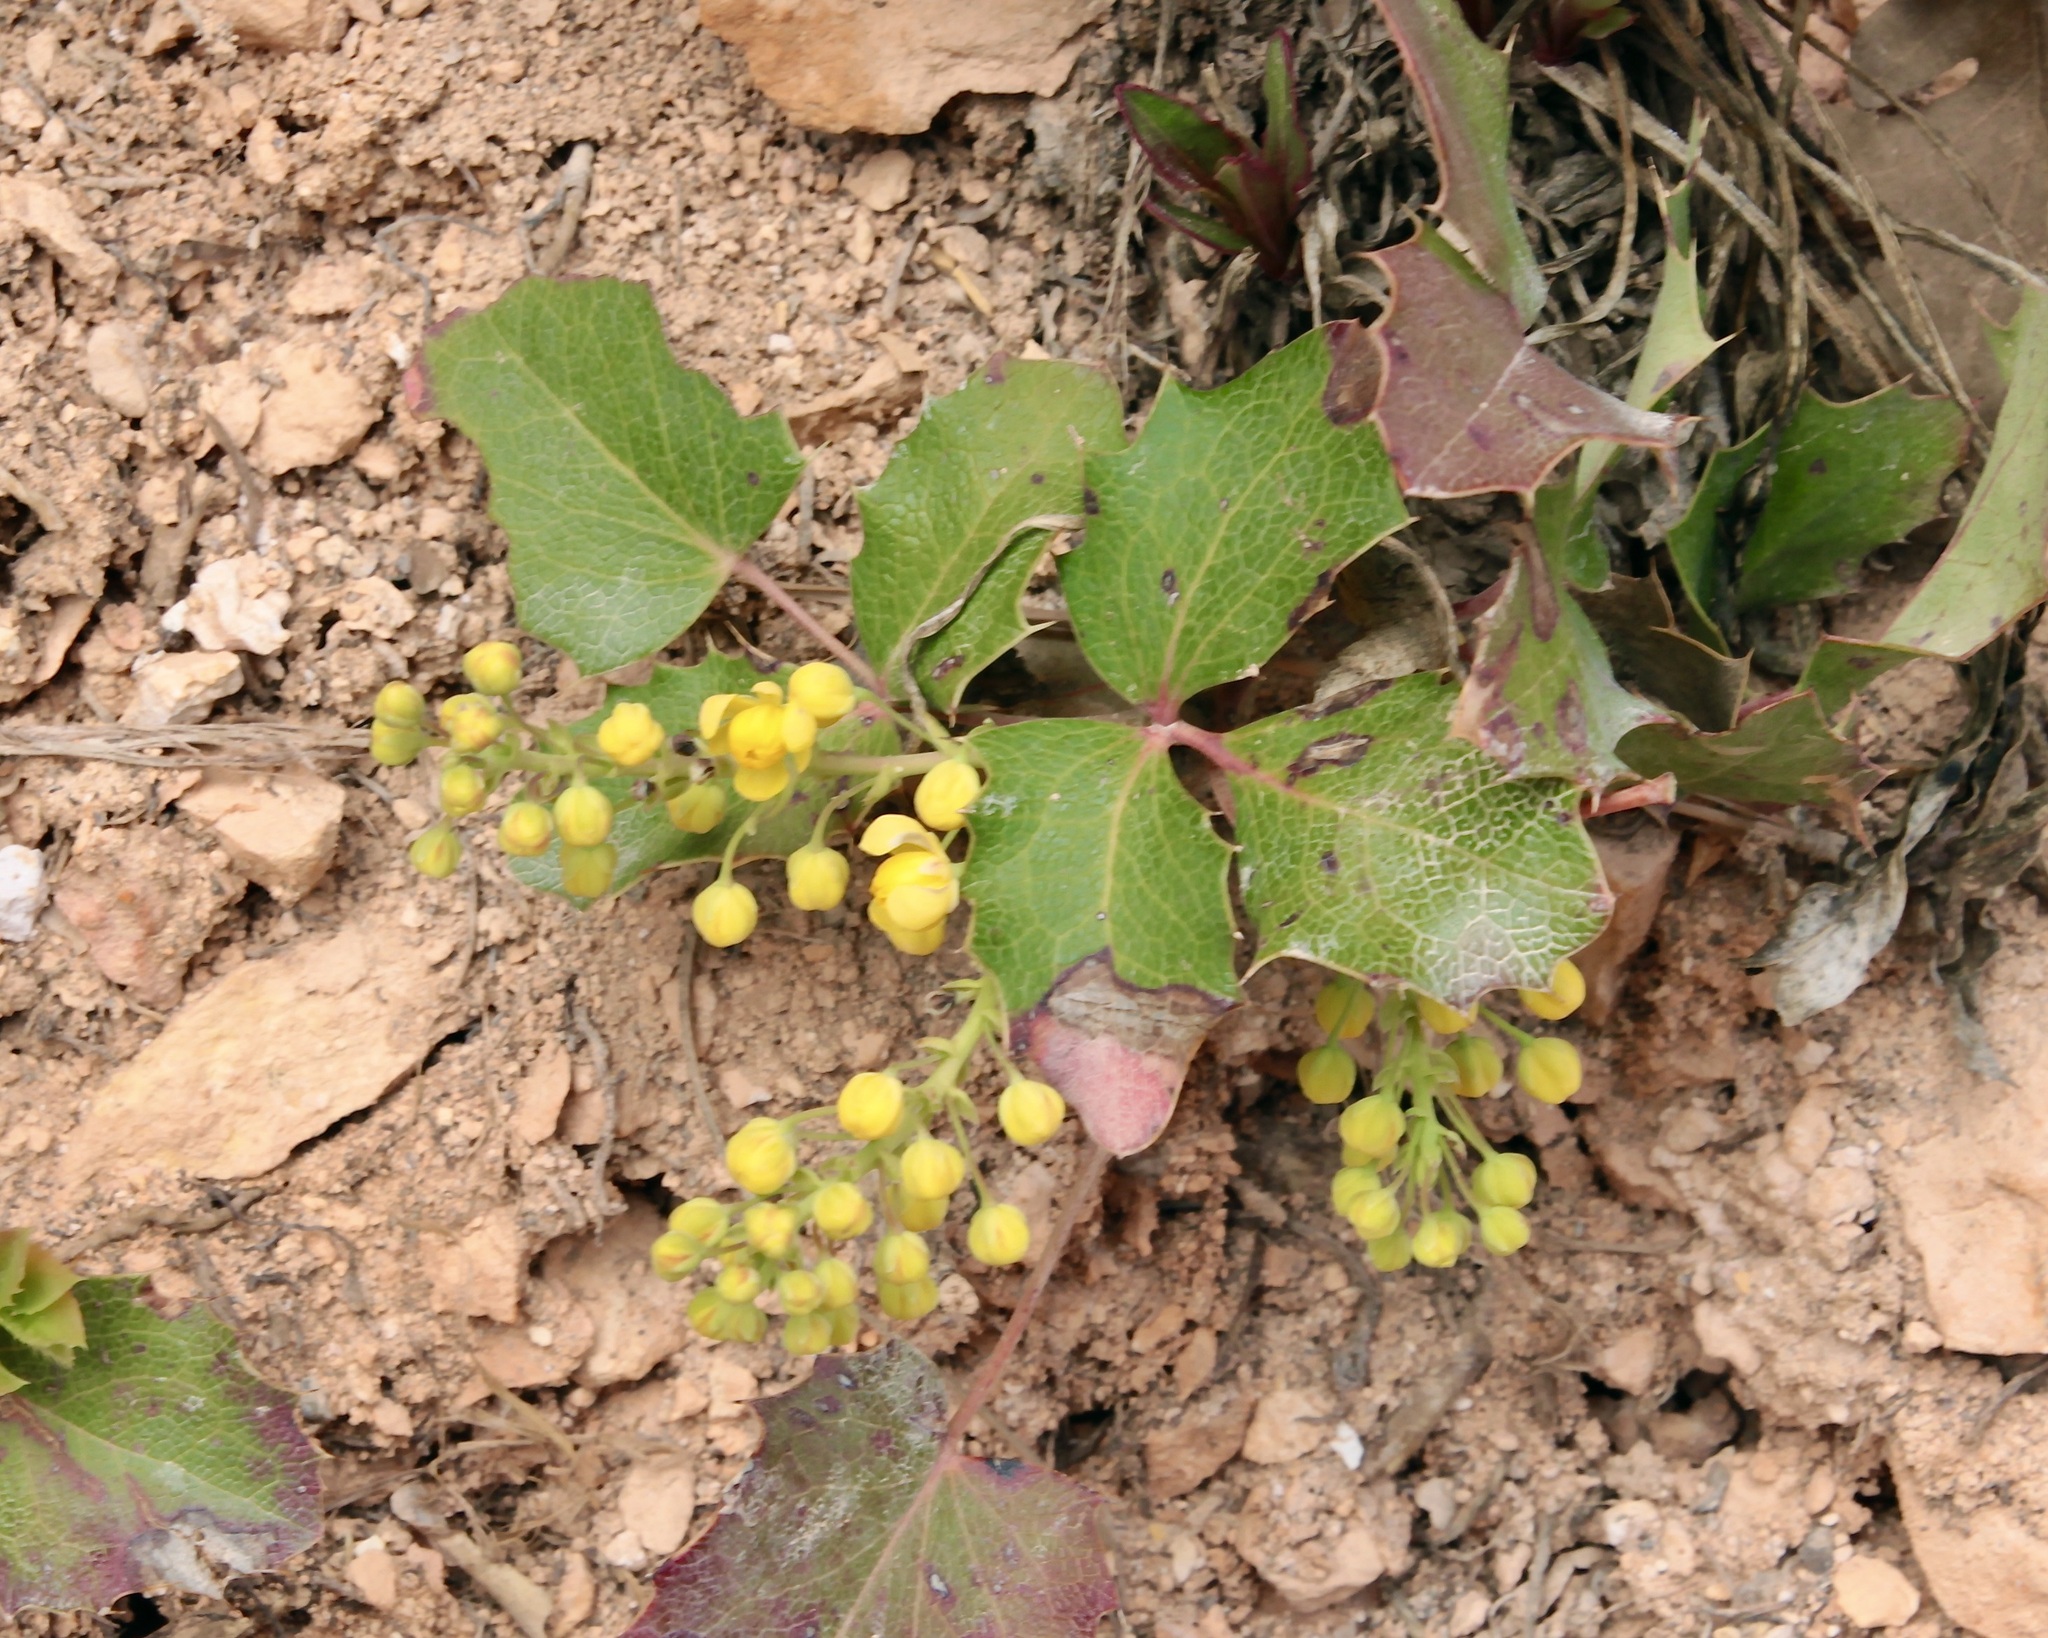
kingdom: Plantae
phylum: Tracheophyta
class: Magnoliopsida
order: Ranunculales
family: Berberidaceae
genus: Mahonia
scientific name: Mahonia repens
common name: Creeping oregon-grape
